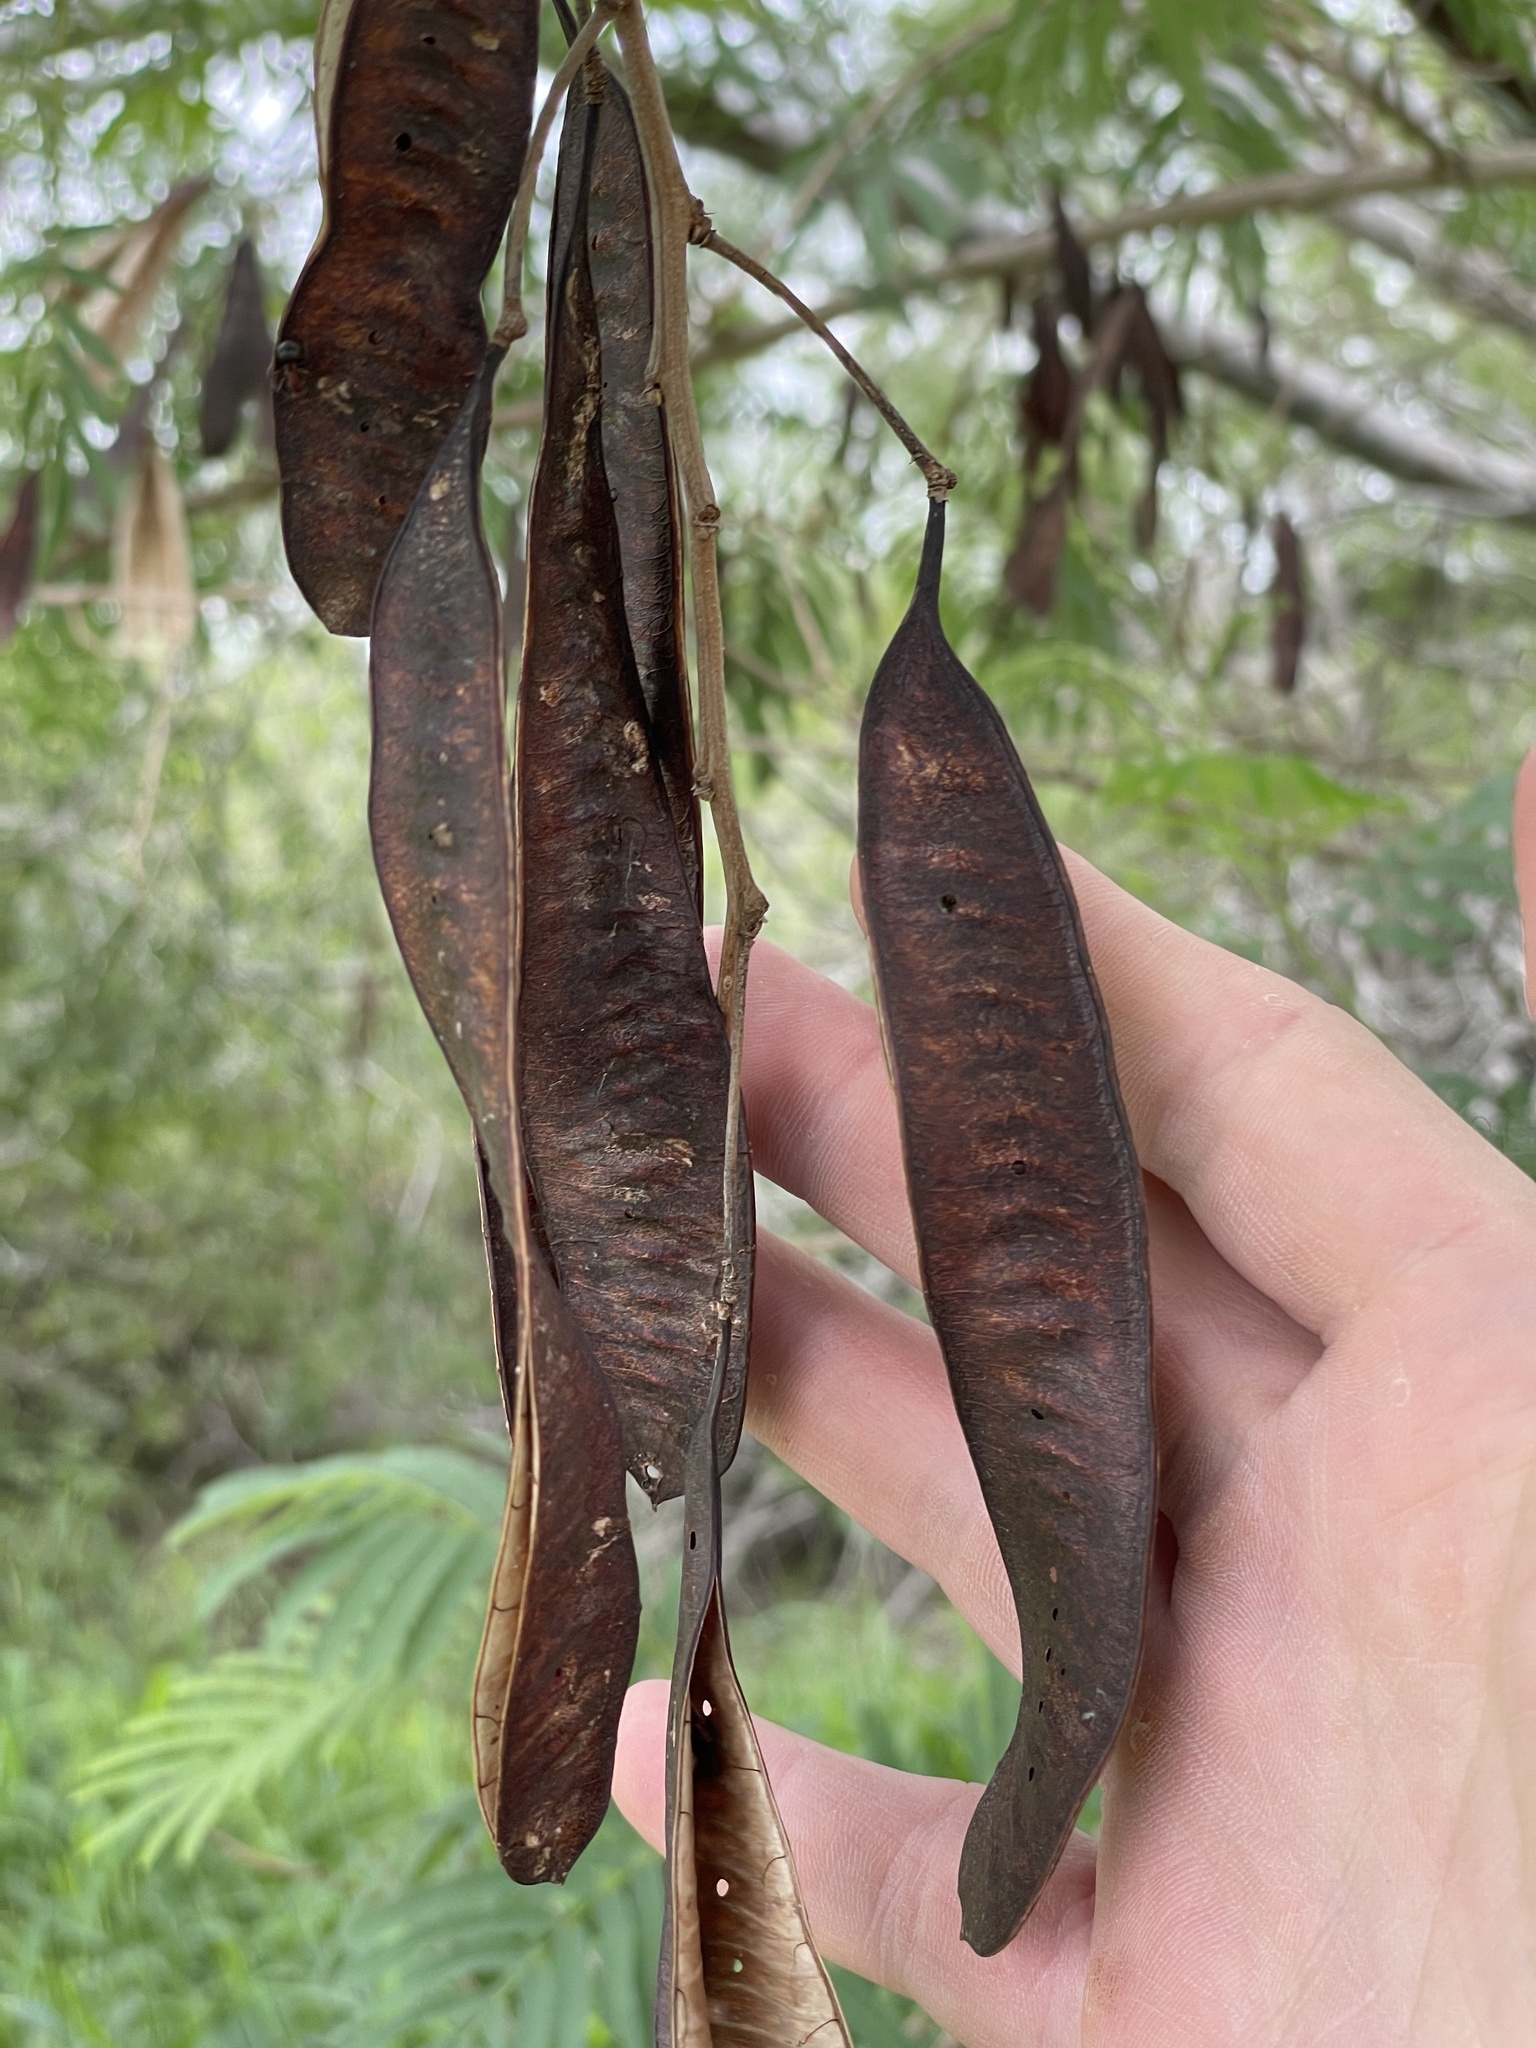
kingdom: Plantae
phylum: Tracheophyta
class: Magnoliopsida
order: Fabales
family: Fabaceae
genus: Leucaena
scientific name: Leucaena pulverulenta
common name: Great leadtree
